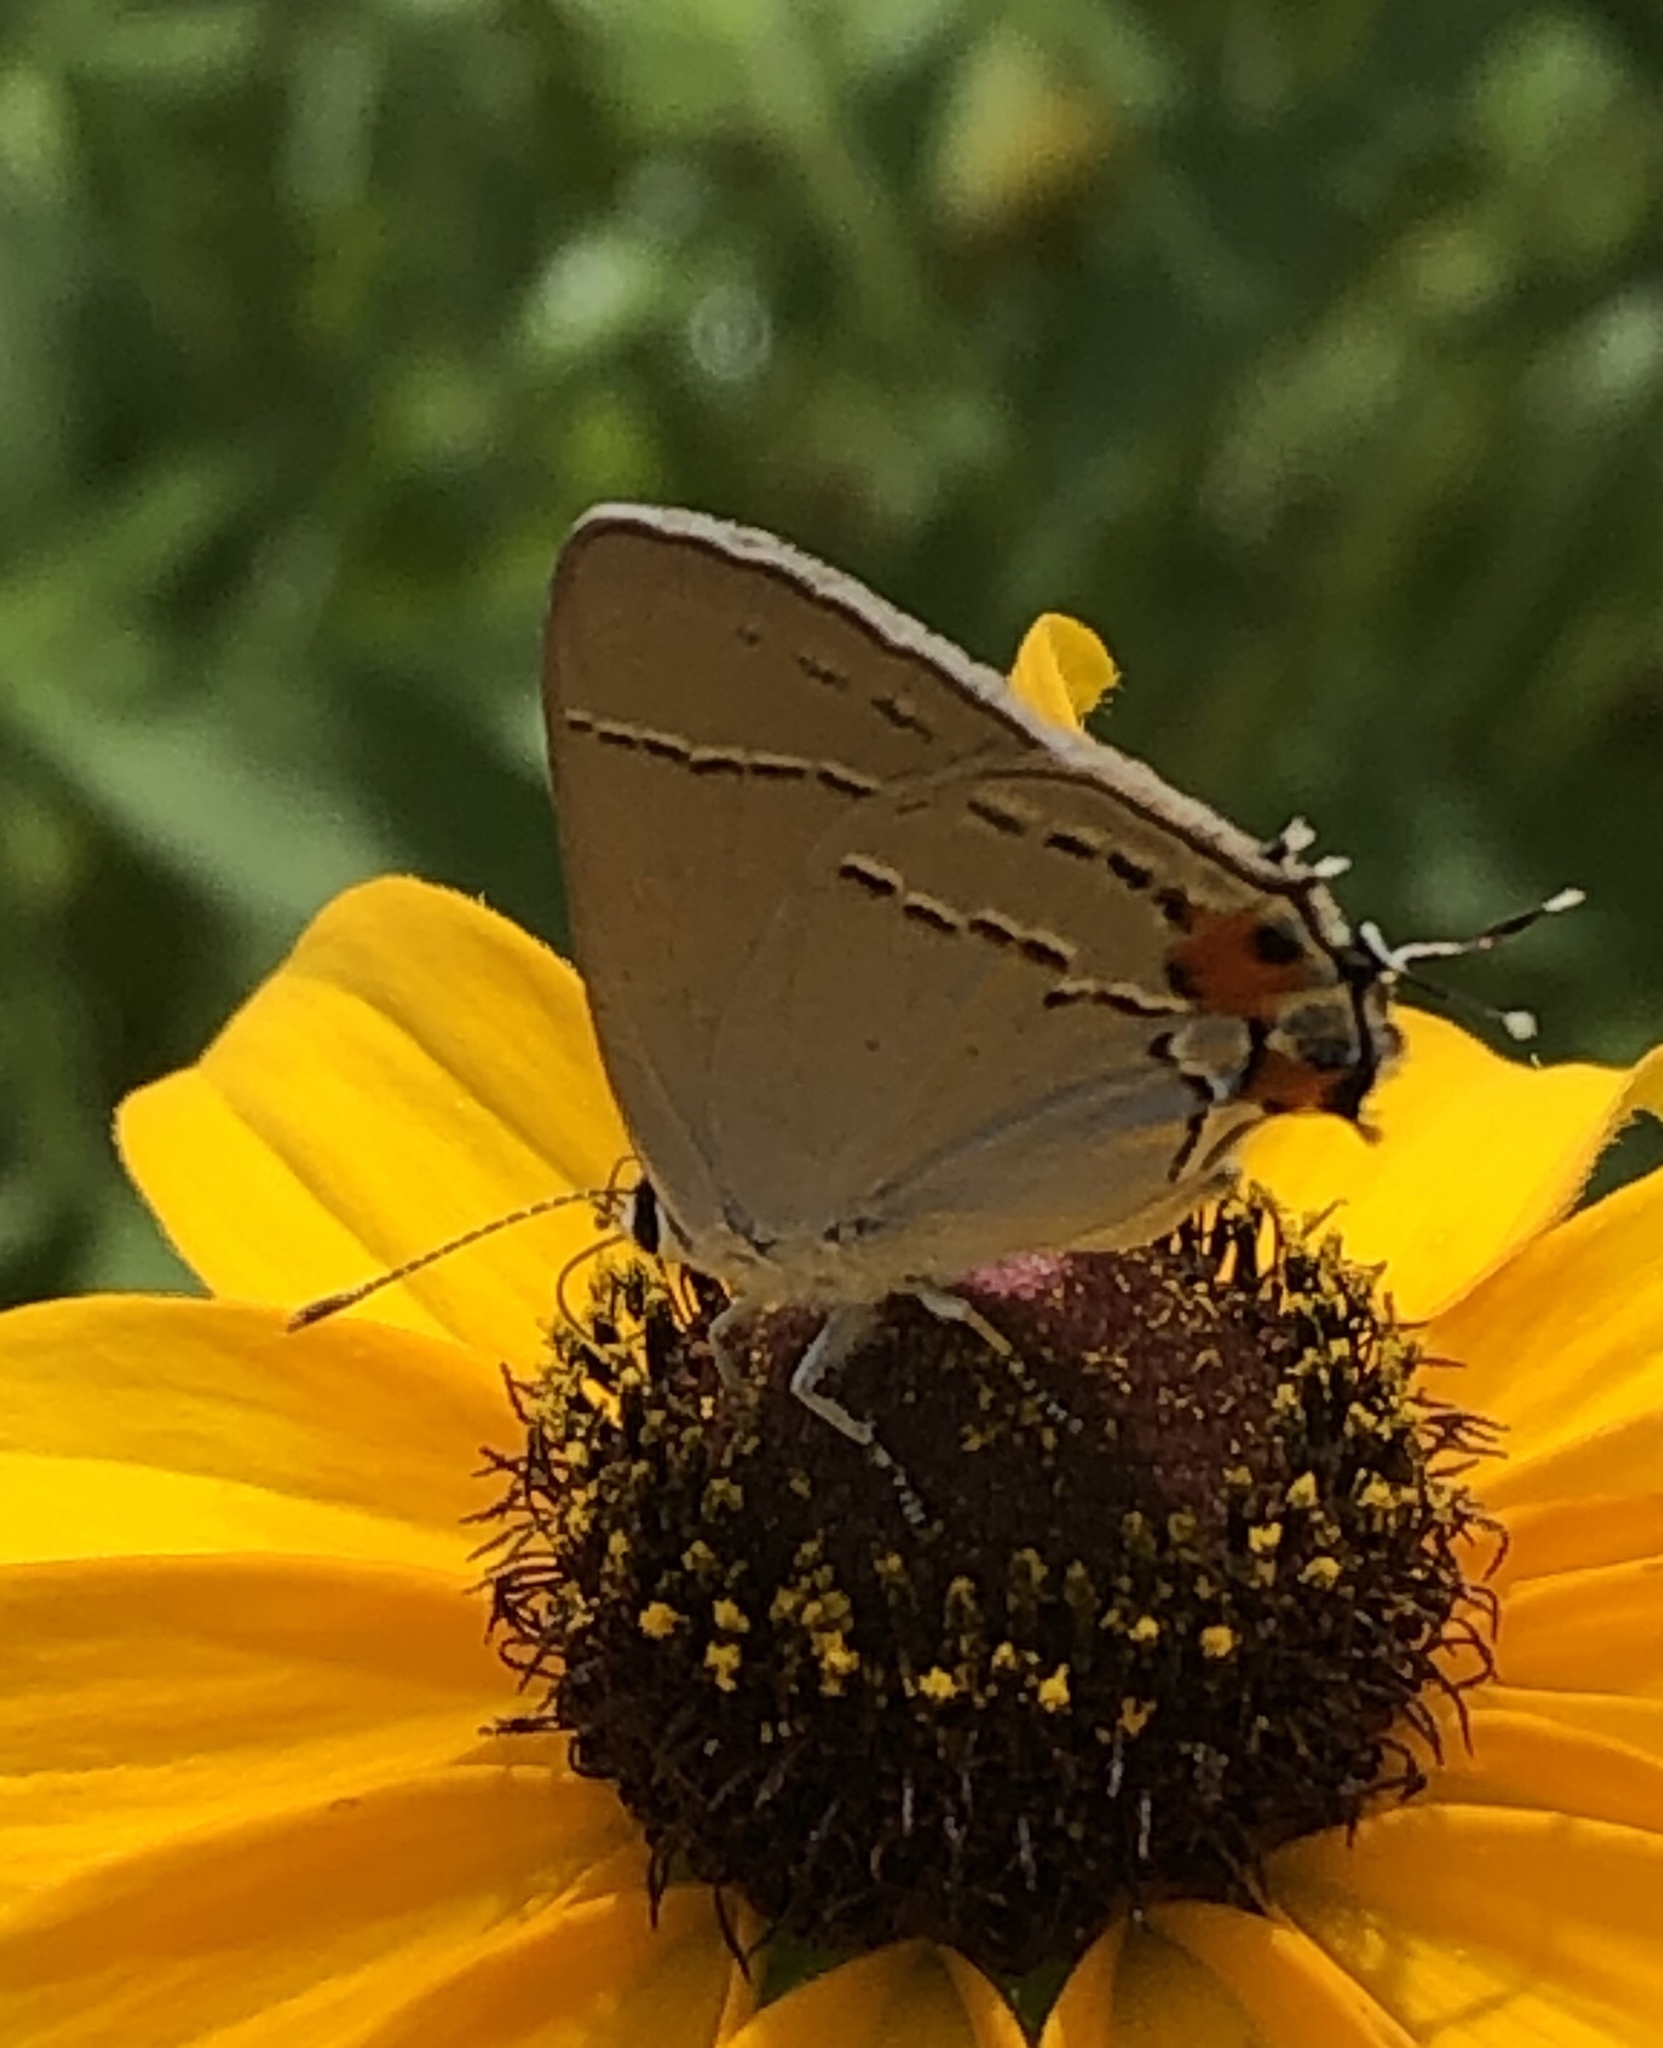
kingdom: Animalia
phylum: Arthropoda
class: Insecta
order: Lepidoptera
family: Lycaenidae
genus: Strymon
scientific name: Strymon melinus
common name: Gray hairstreak
